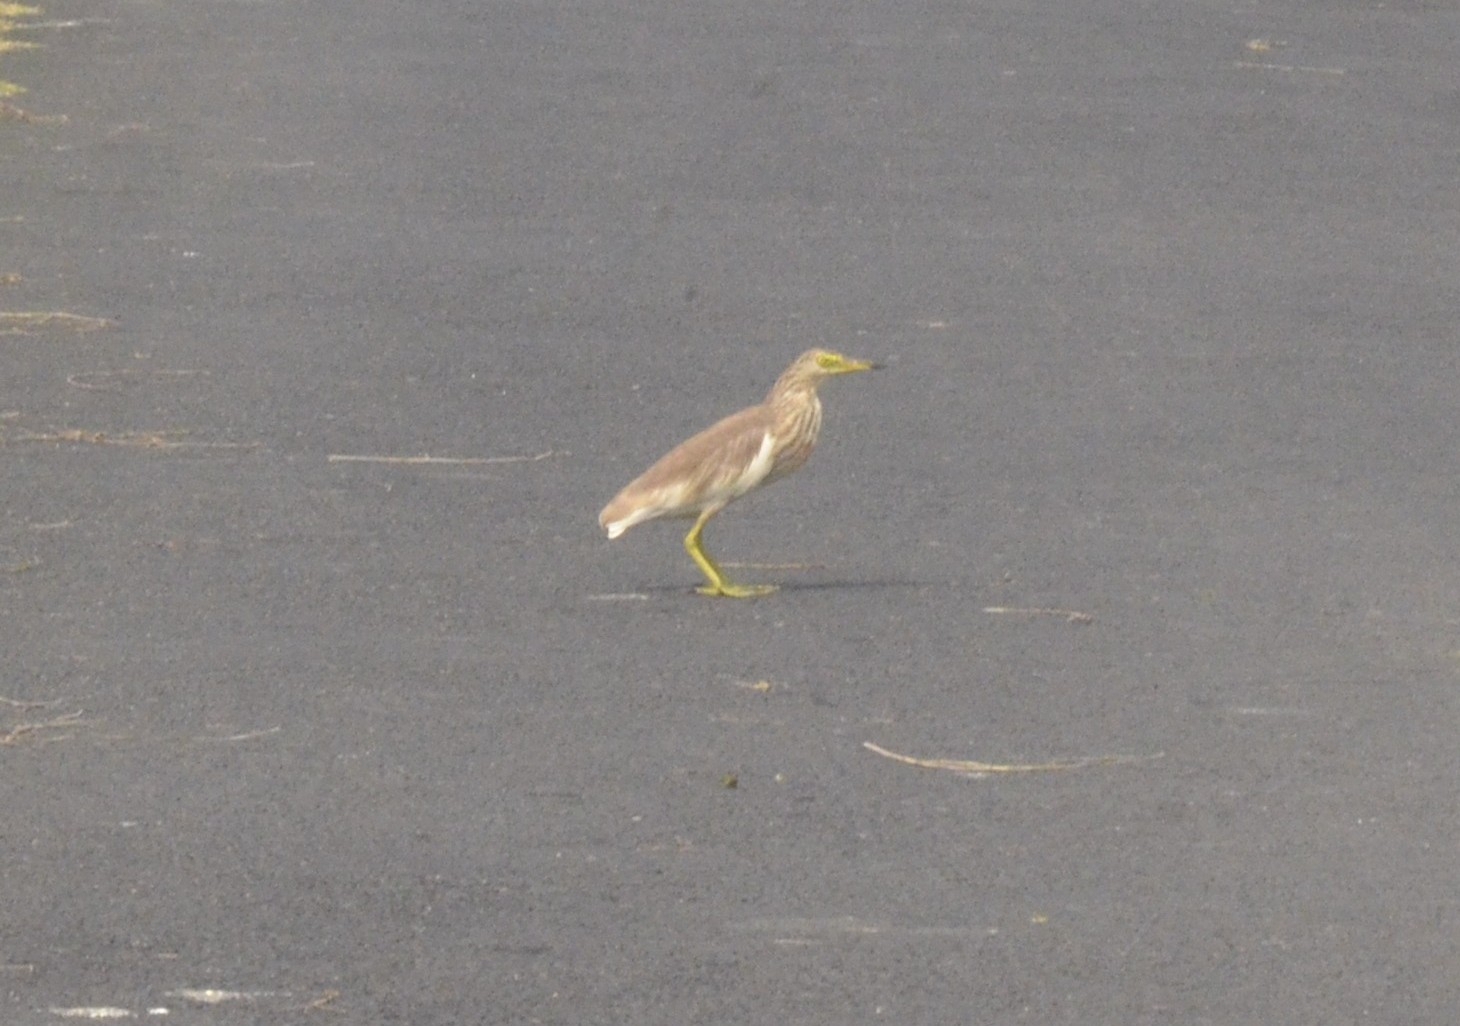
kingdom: Animalia
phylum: Chordata
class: Aves
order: Pelecaniformes
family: Ardeidae
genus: Ardeola
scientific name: Ardeola grayii
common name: Indian pond heron
